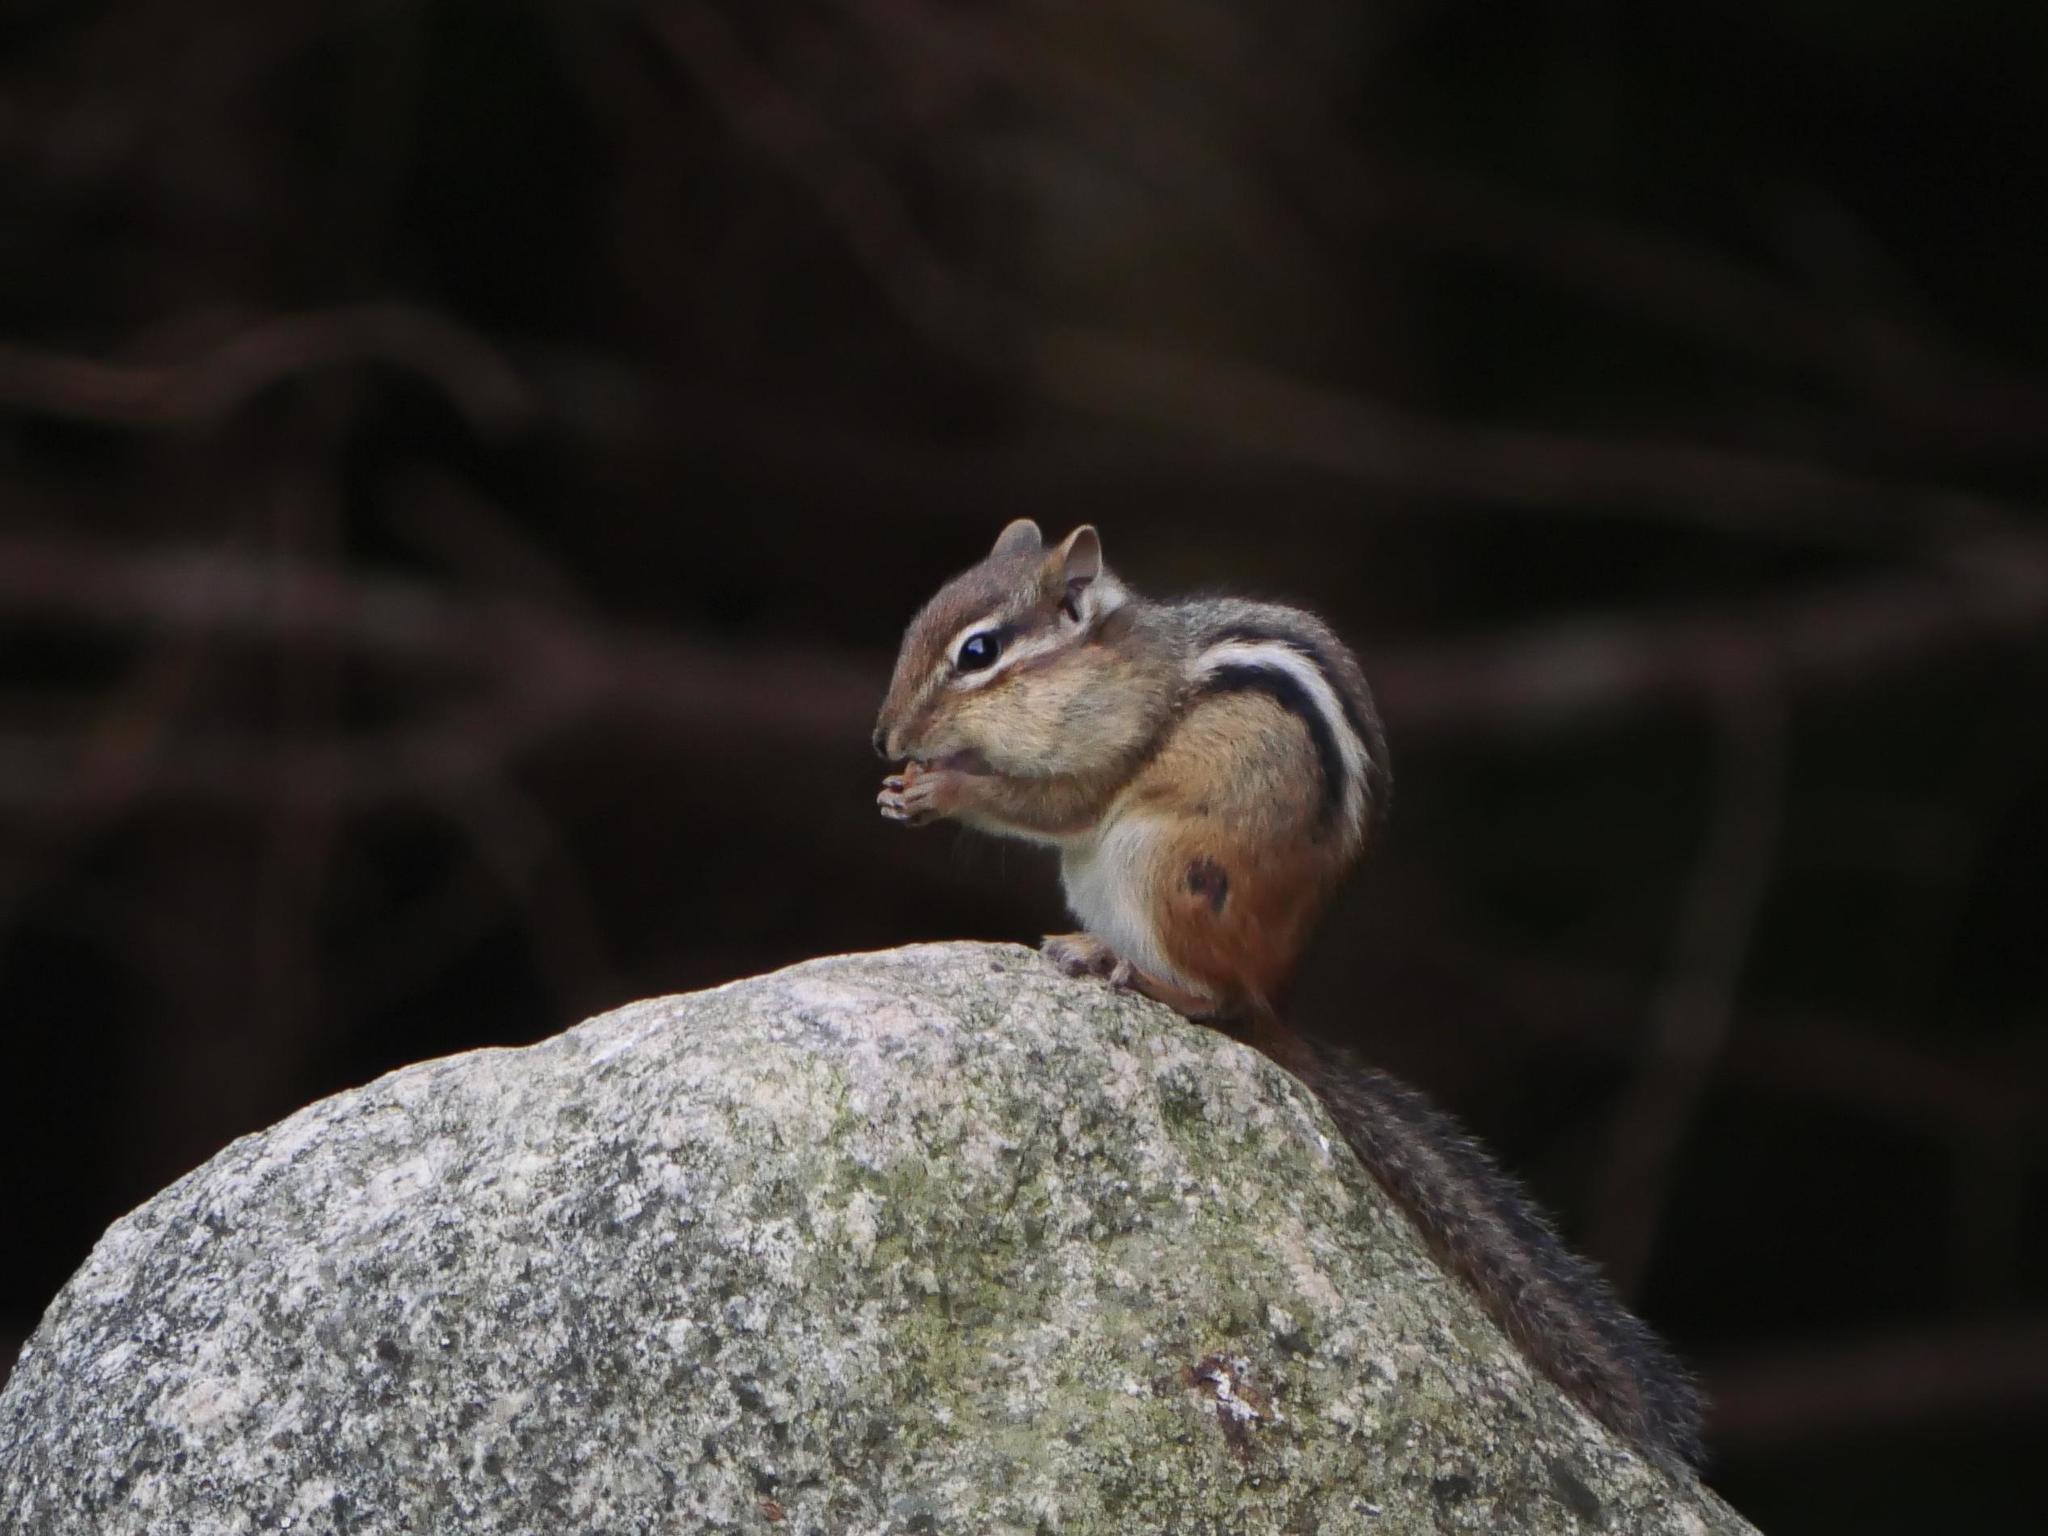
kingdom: Animalia
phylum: Chordata
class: Mammalia
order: Rodentia
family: Sciuridae
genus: Tamias
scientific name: Tamias striatus
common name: Eastern chipmunk
